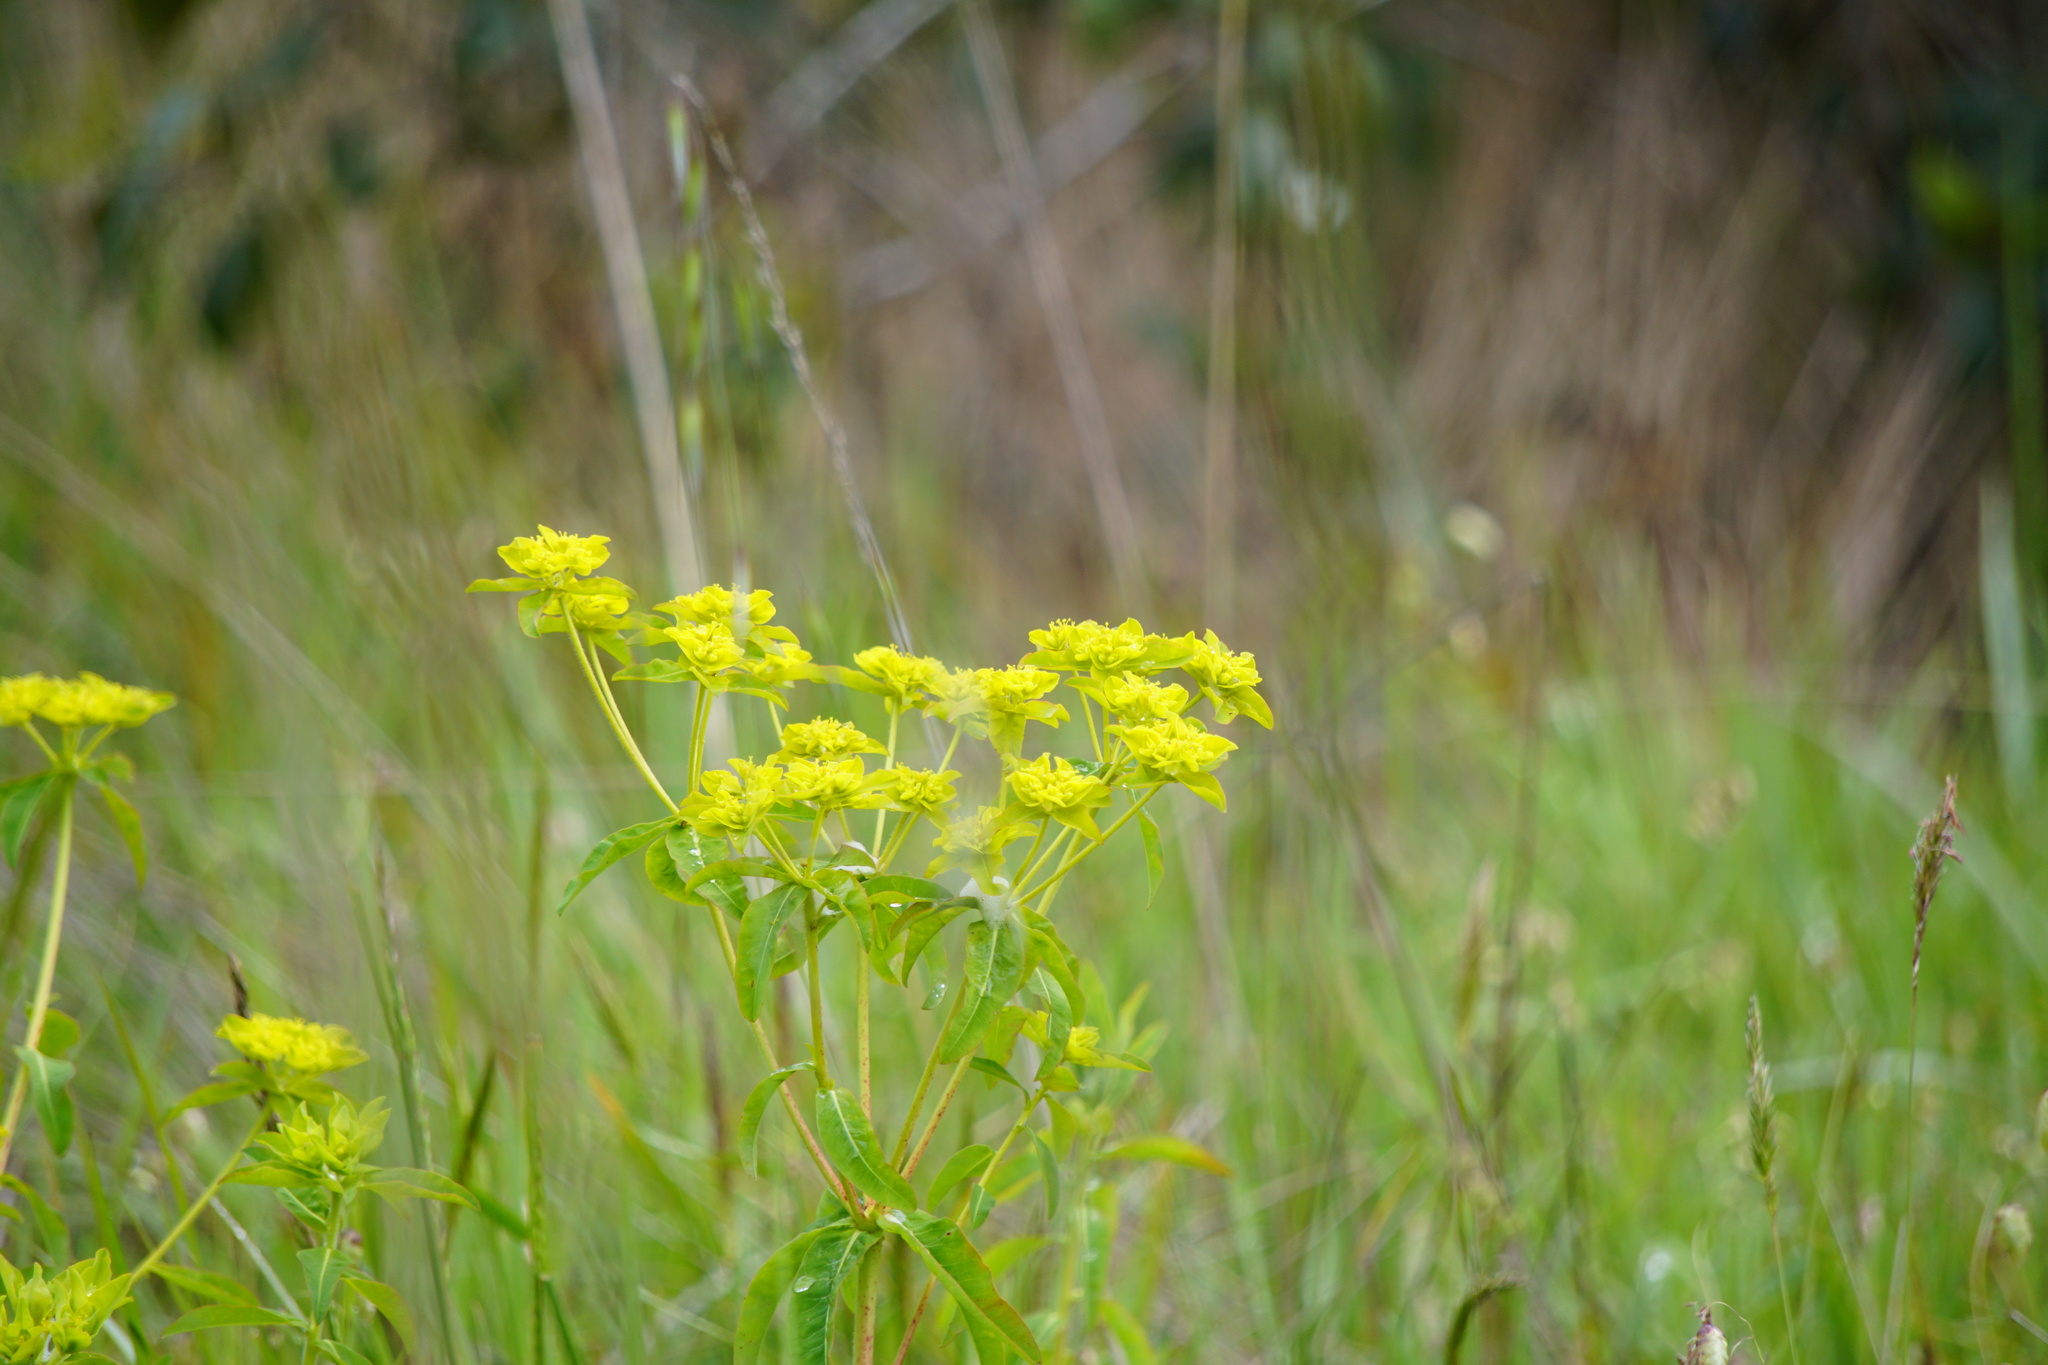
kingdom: Plantae
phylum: Tracheophyta
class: Magnoliopsida
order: Malpighiales
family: Euphorbiaceae
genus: Euphorbia
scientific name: Euphorbia oblongata
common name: Balkan spurge
